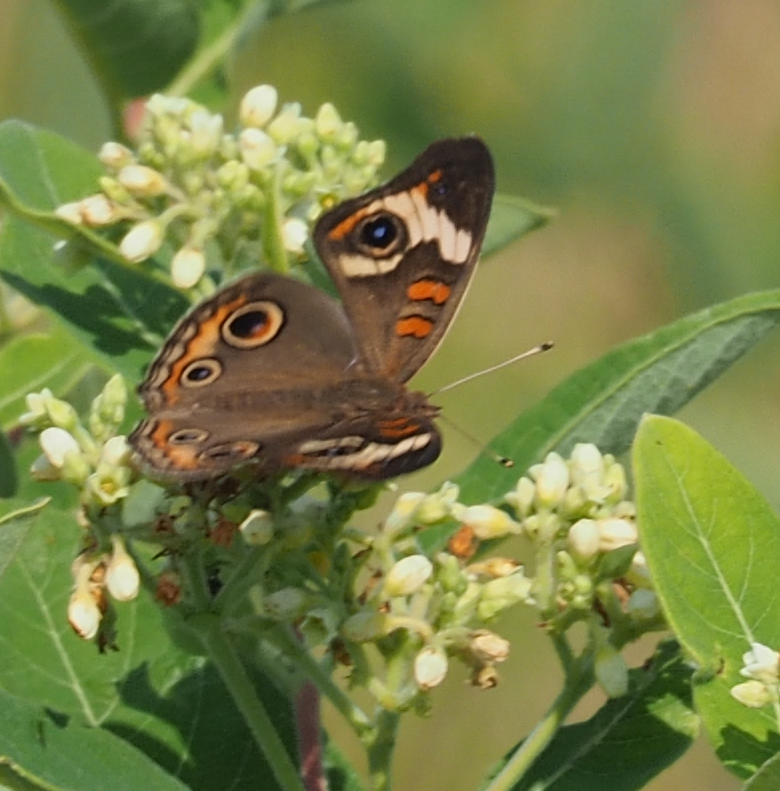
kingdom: Animalia
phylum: Arthropoda
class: Insecta
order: Lepidoptera
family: Nymphalidae
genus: Junonia
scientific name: Junonia coenia
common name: Common buckeye
